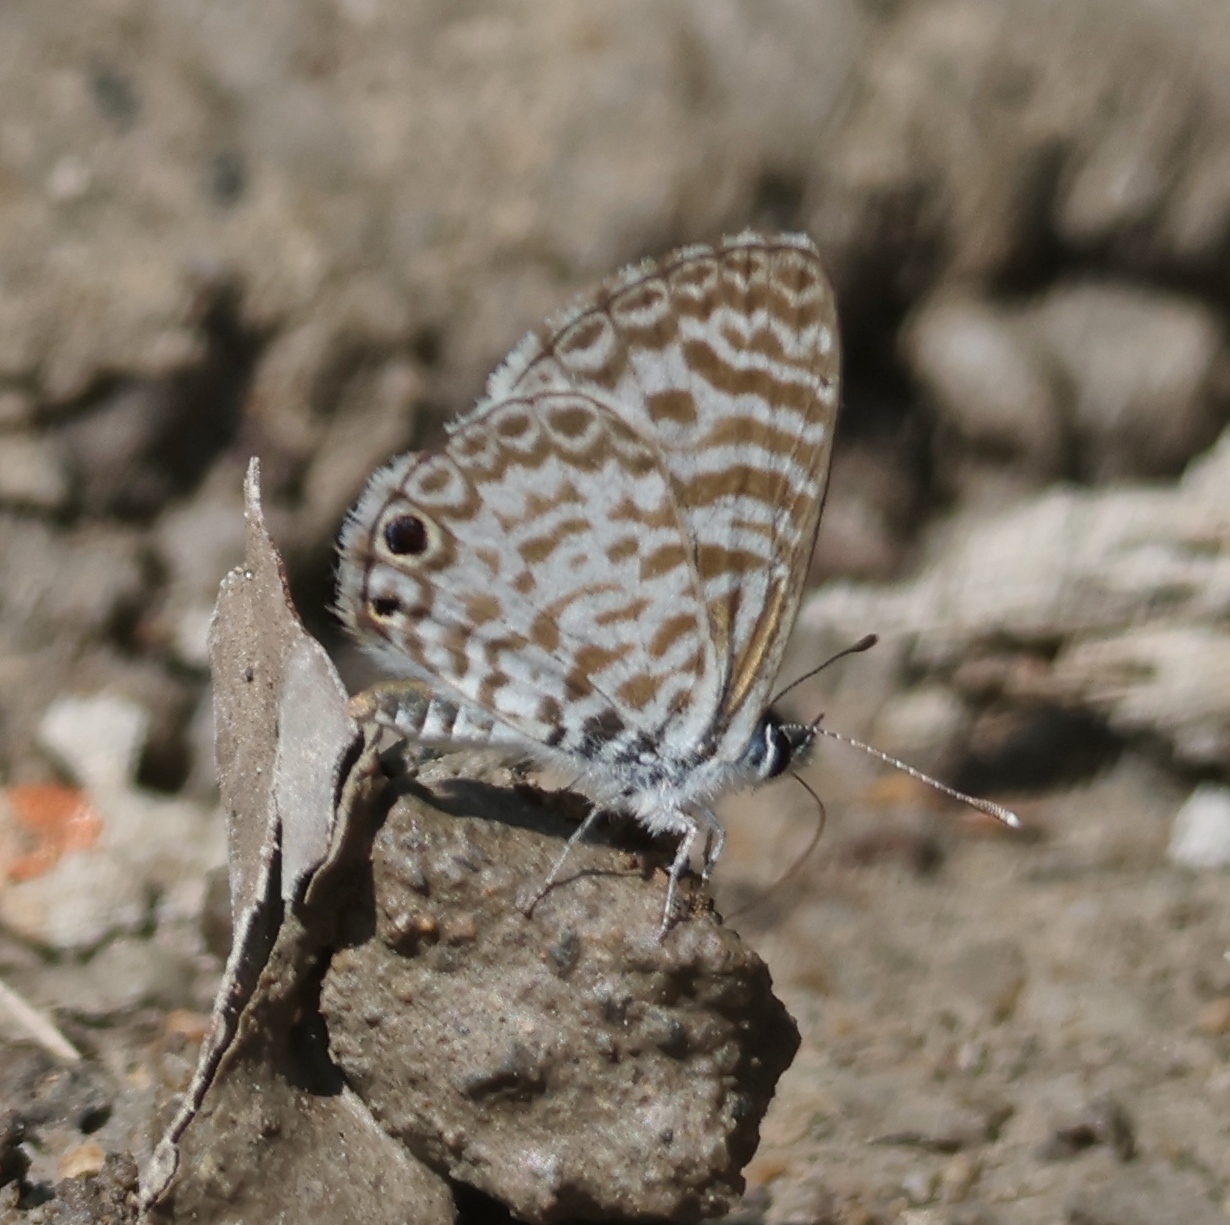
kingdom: Animalia
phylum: Arthropoda
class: Insecta
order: Lepidoptera
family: Lycaenidae
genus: Leptotes
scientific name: Leptotes cassius
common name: Cassius blue
